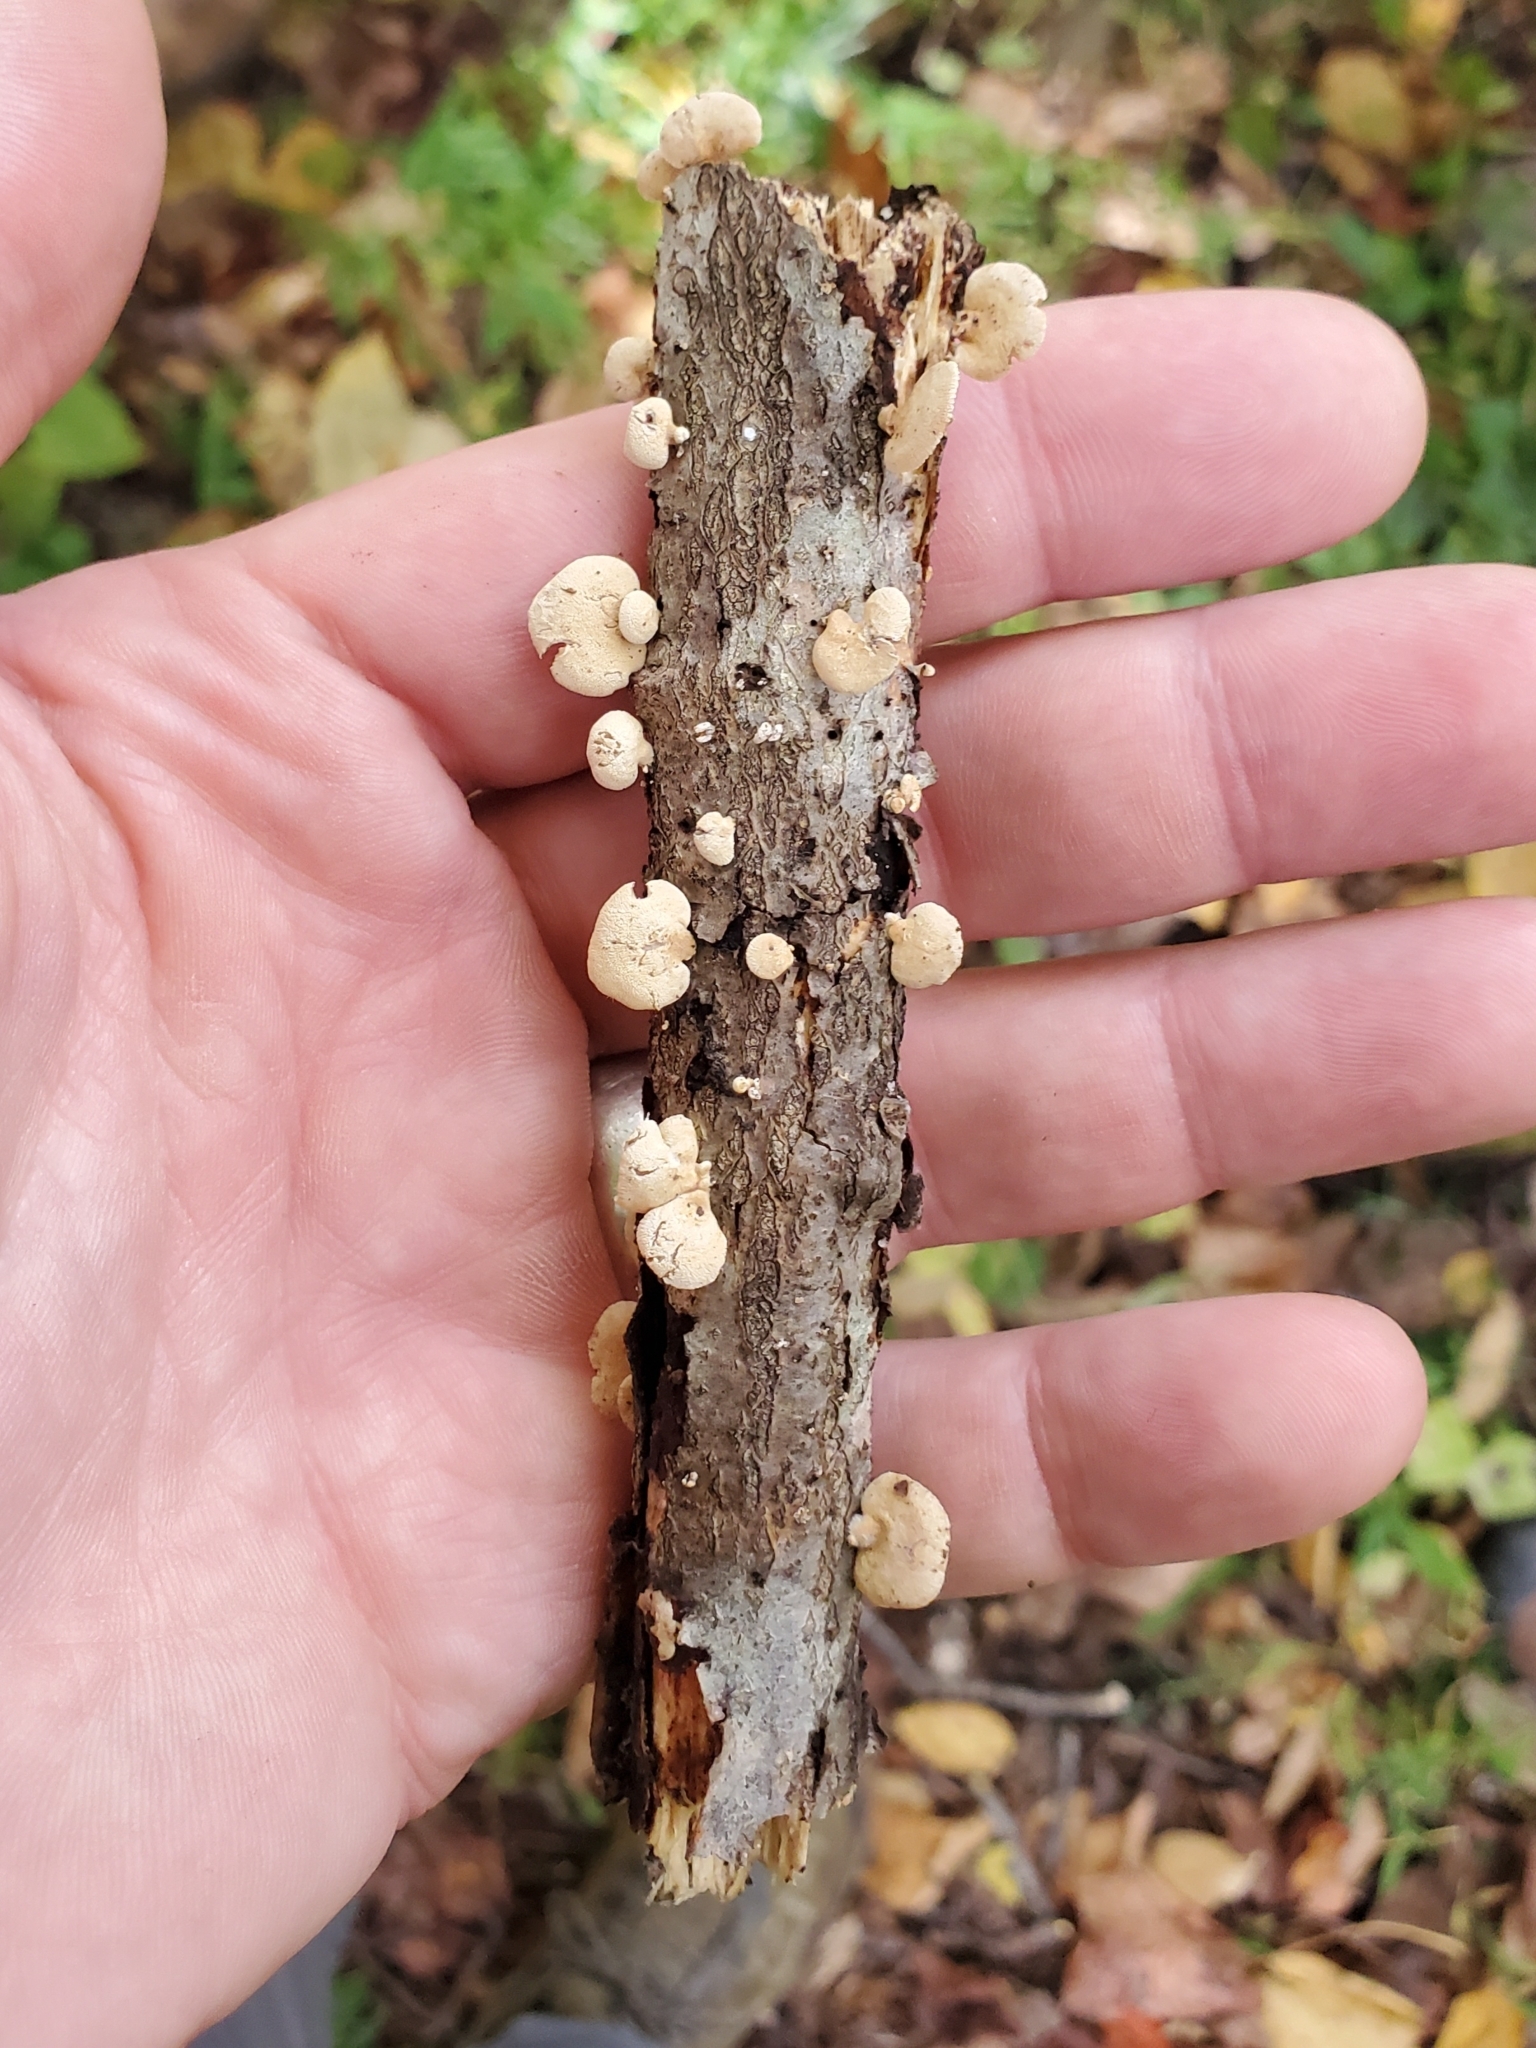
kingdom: Fungi
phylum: Basidiomycota
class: Agaricomycetes
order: Agaricales
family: Mycenaceae
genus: Panellus
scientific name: Panellus stipticus
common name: Bitter oysterling
